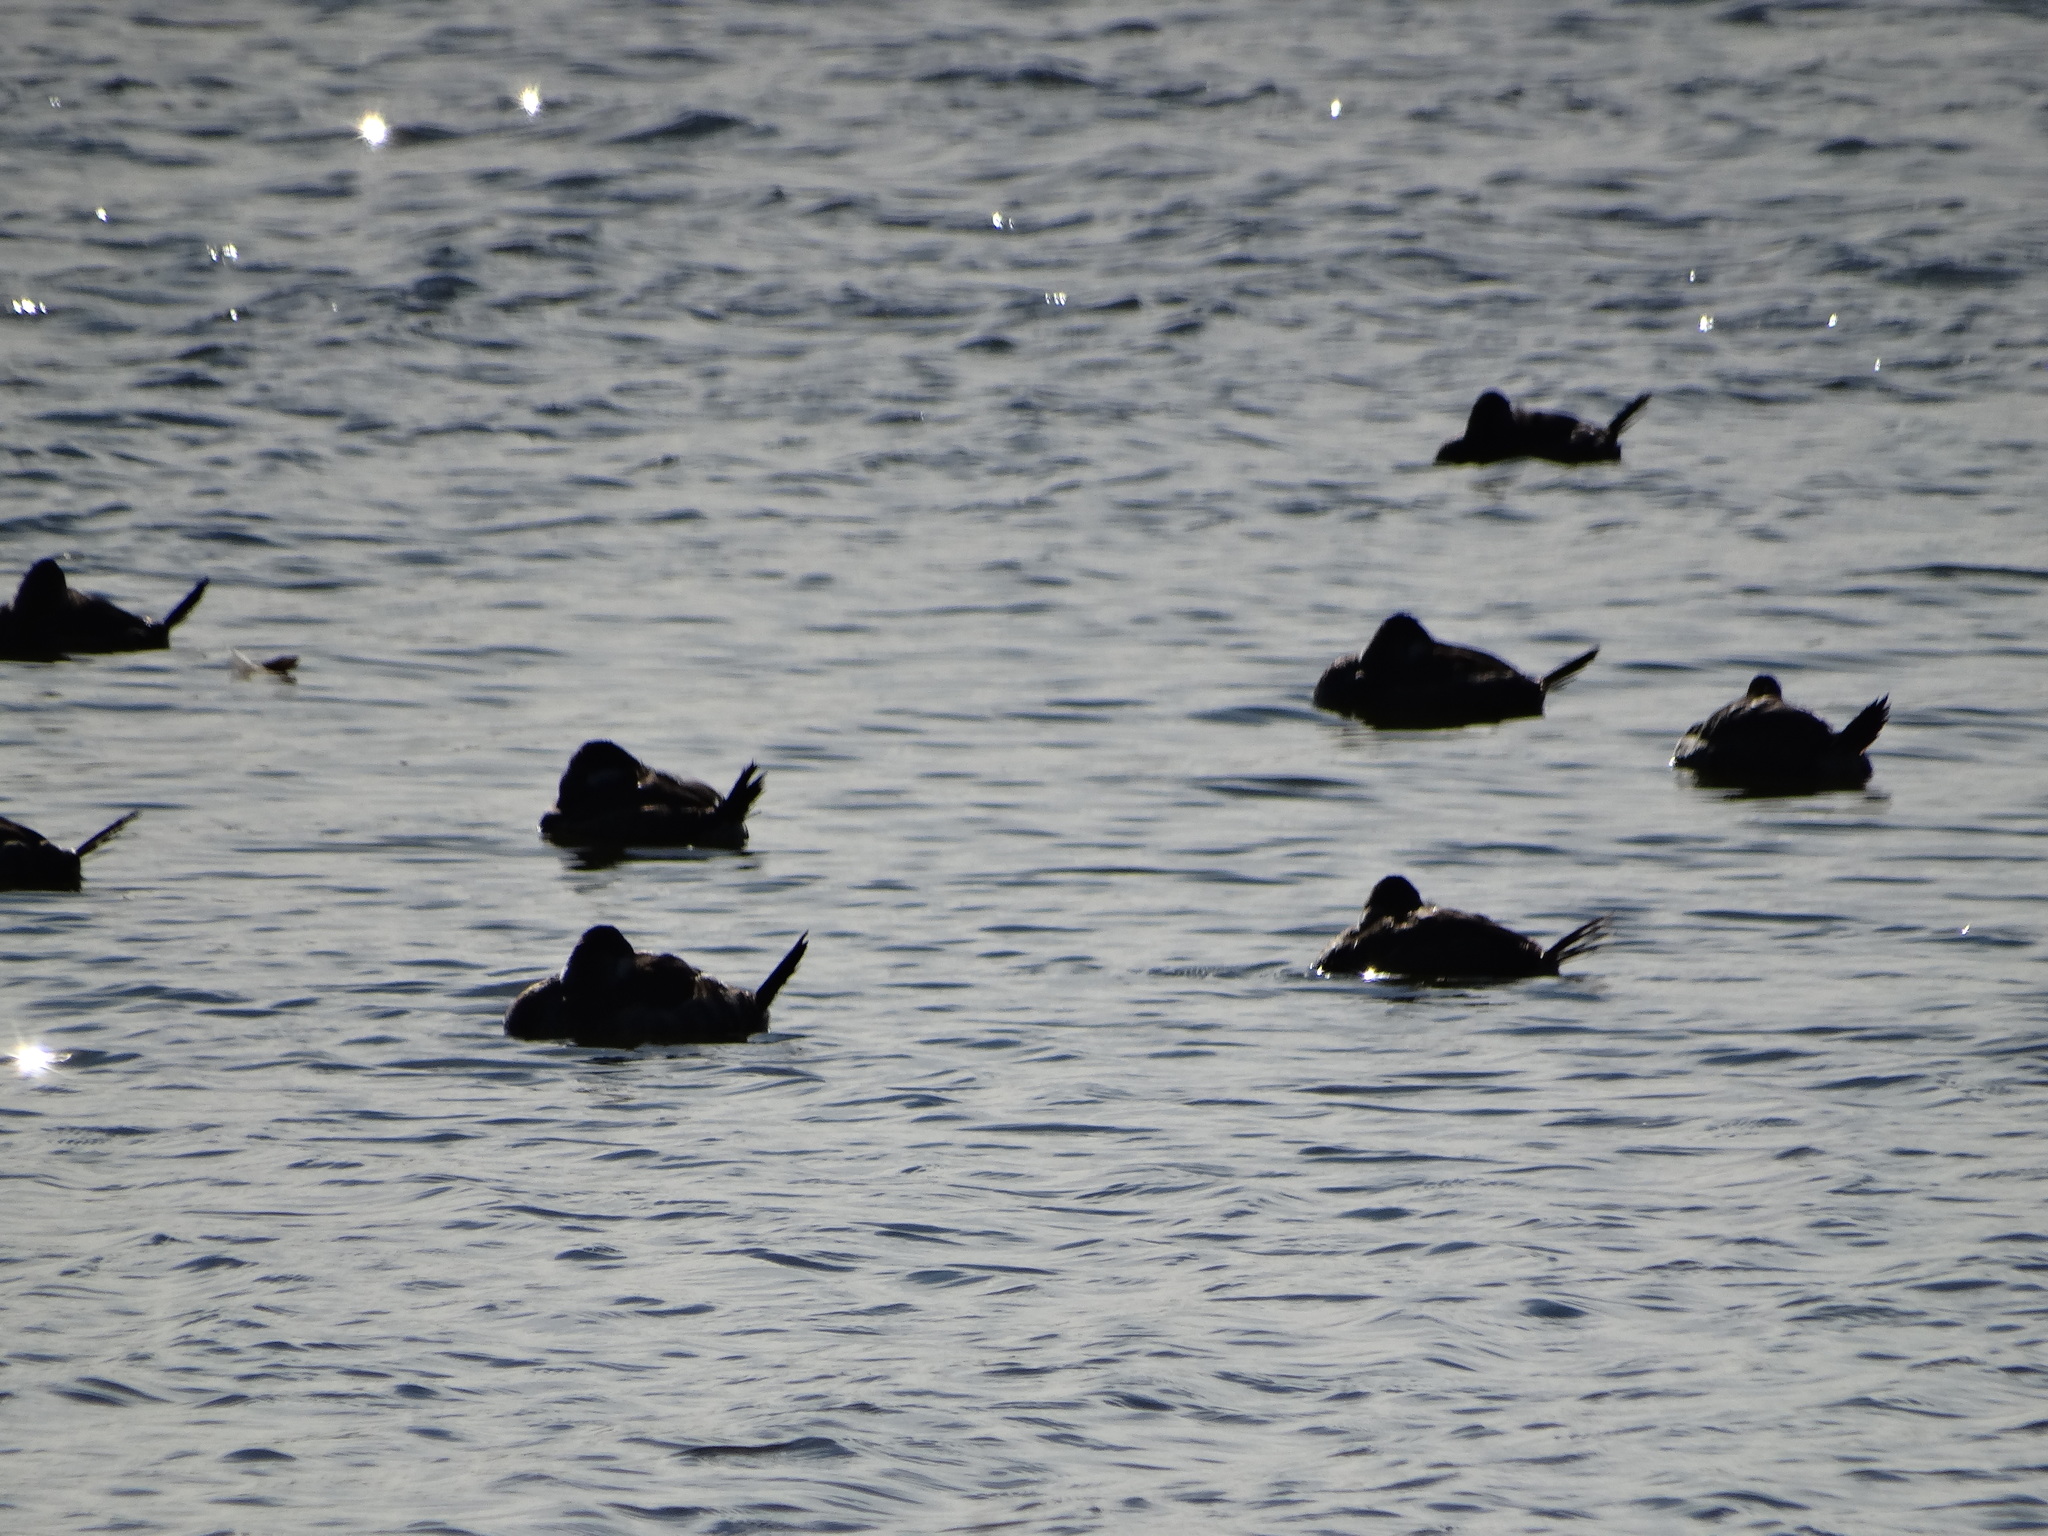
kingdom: Animalia
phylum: Chordata
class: Aves
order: Anseriformes
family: Anatidae
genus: Oxyura
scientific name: Oxyura jamaicensis
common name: Ruddy duck
